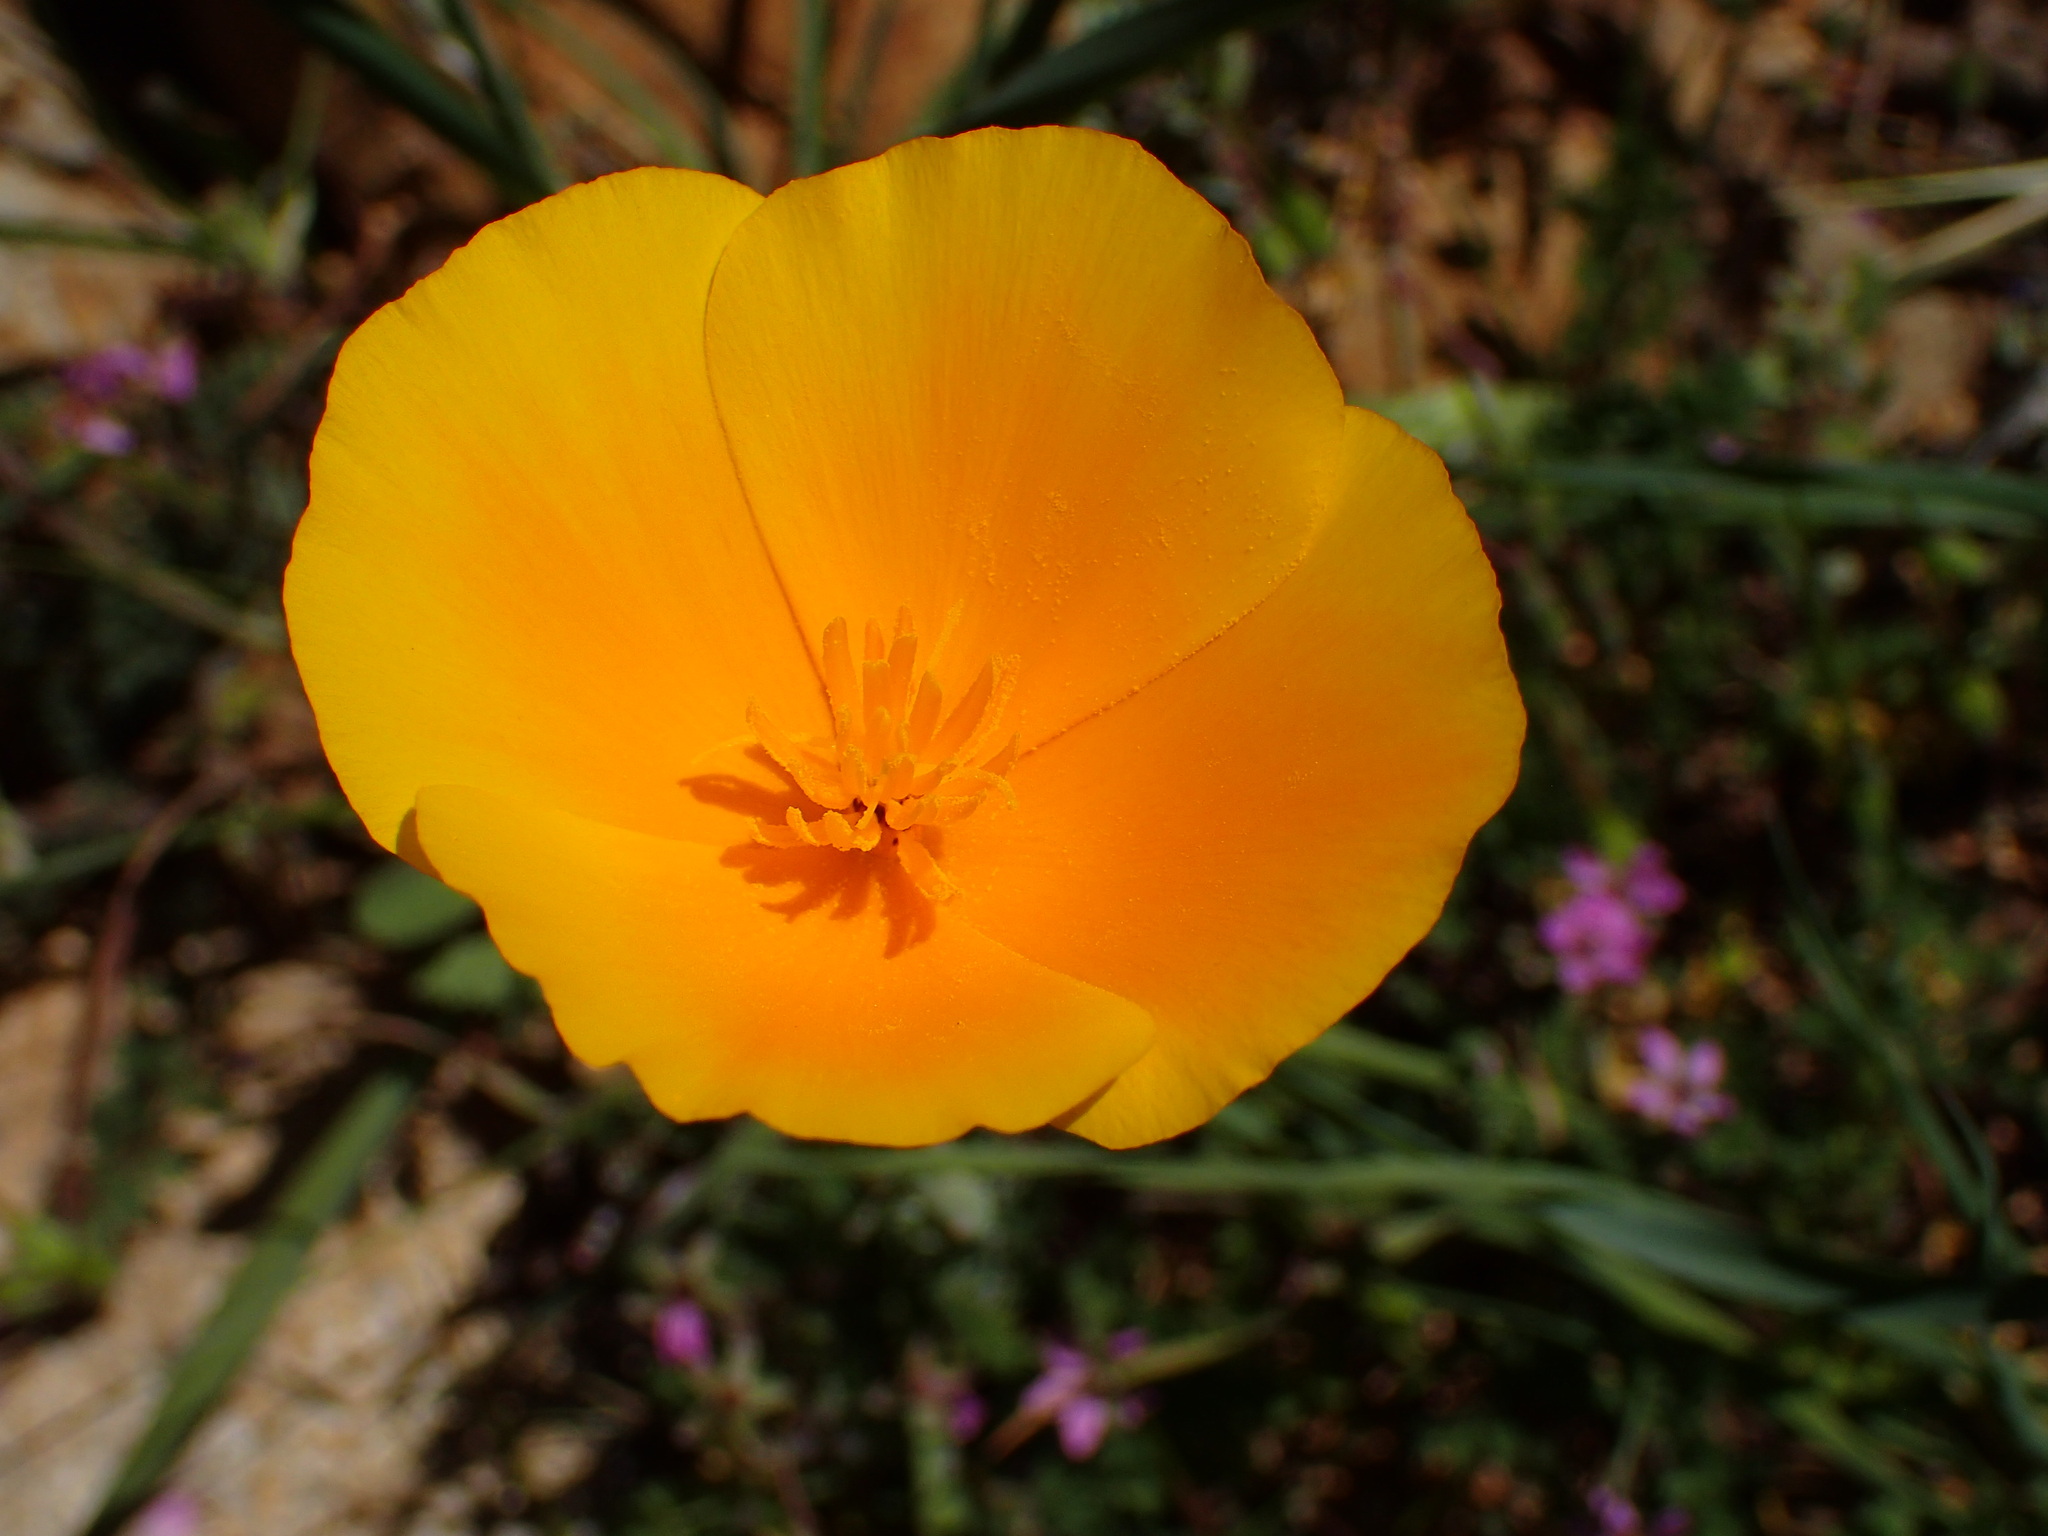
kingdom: Plantae
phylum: Tracheophyta
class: Magnoliopsida
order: Ranunculales
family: Papaveraceae
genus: Eschscholzia
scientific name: Eschscholzia caespitosa
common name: Tufted california-poppy
